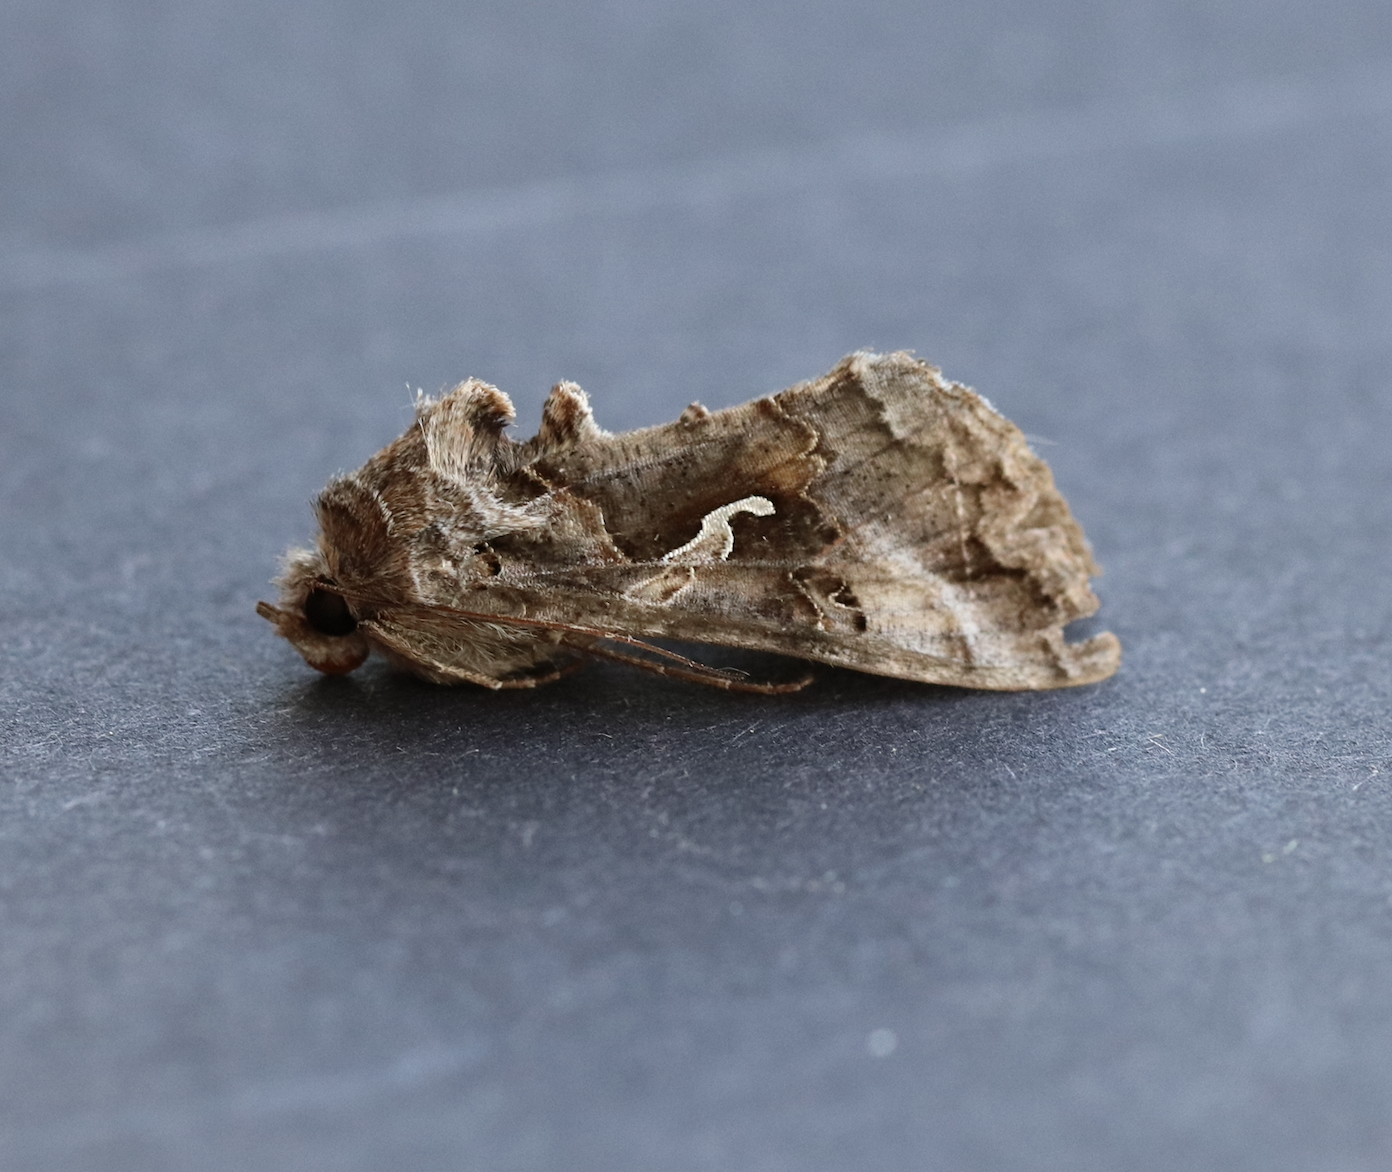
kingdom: Animalia
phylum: Arthropoda
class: Insecta
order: Lepidoptera
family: Noctuidae
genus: Autographa
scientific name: Autographa gamma
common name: Silver y
